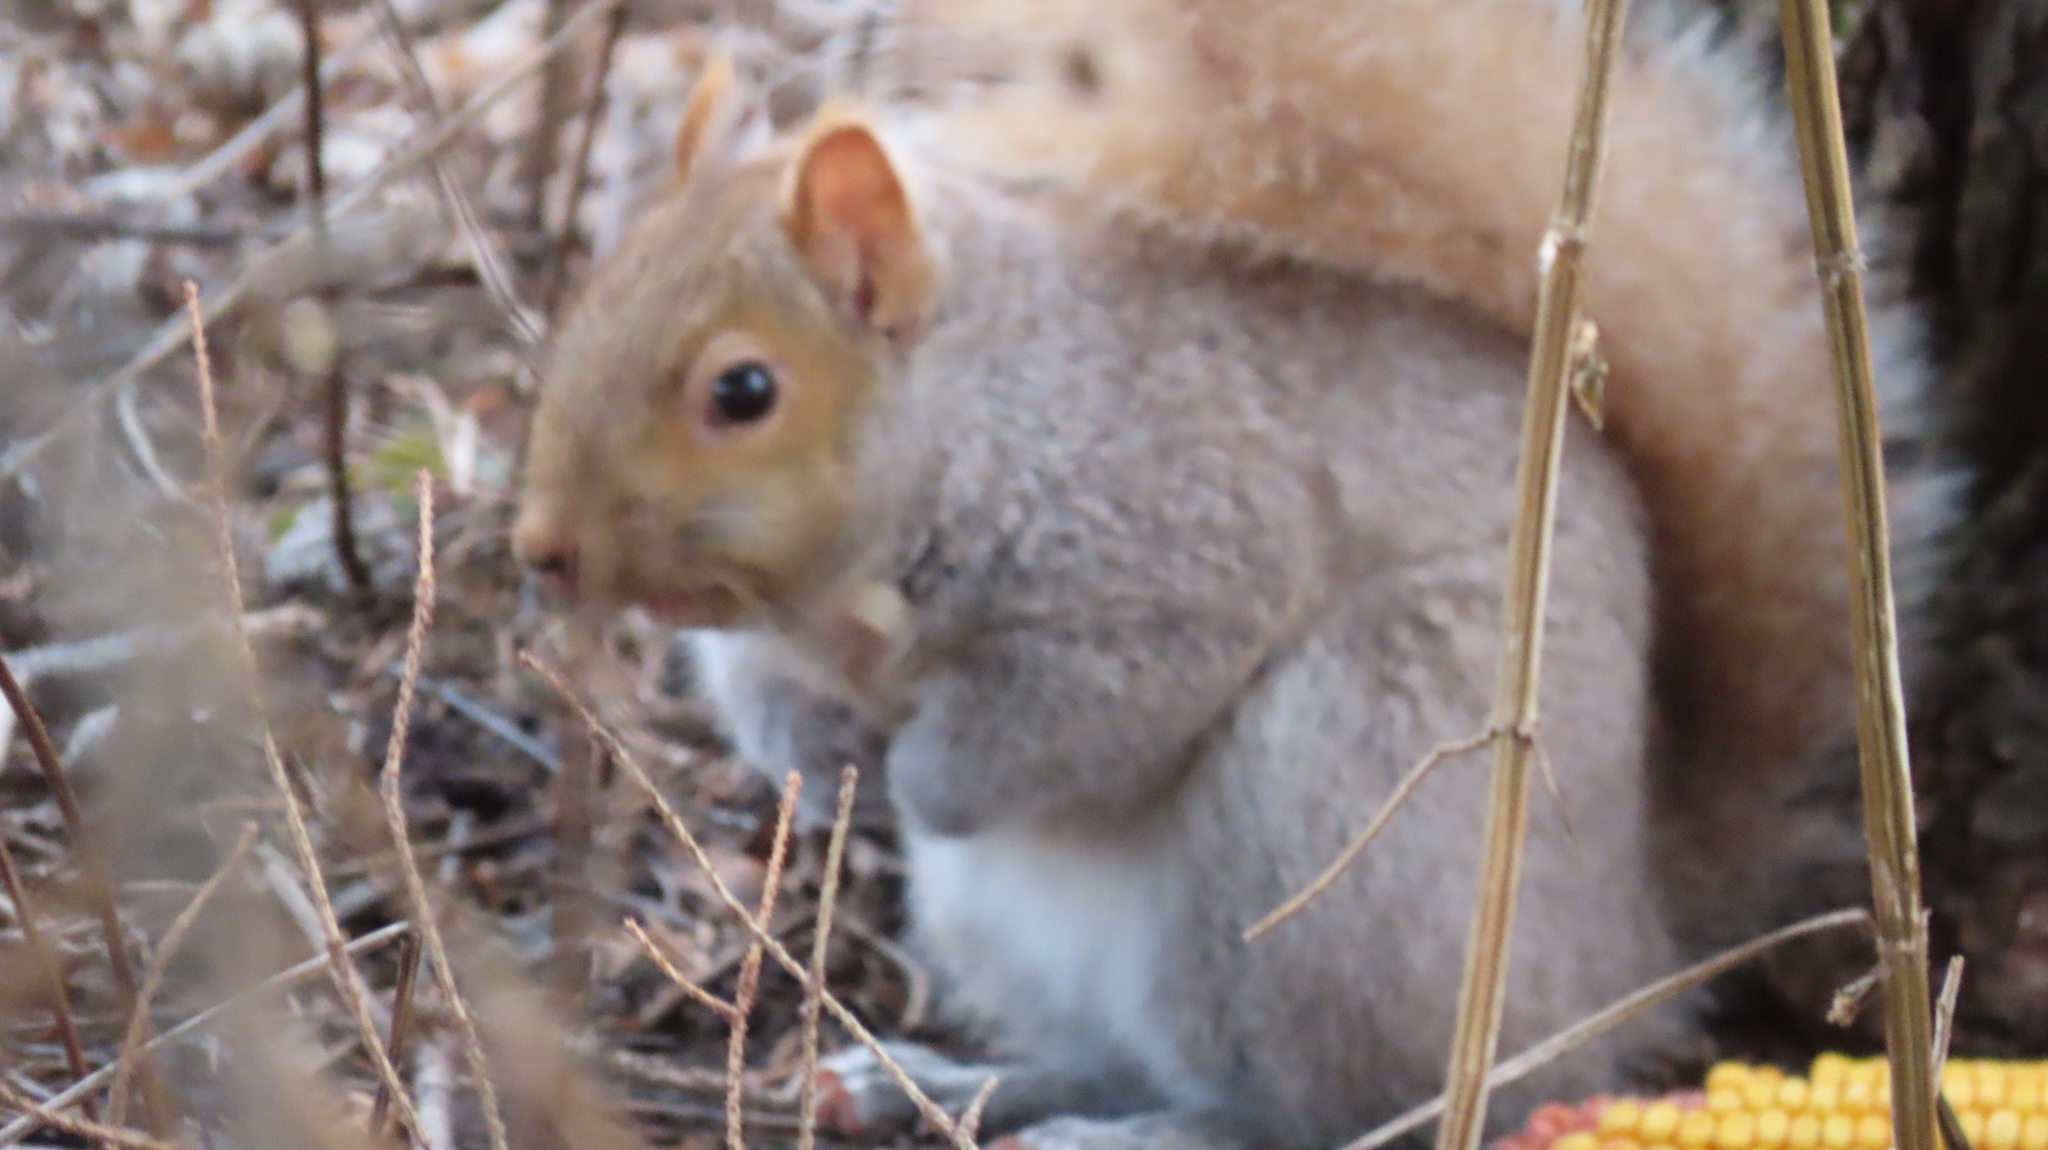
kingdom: Animalia
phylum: Chordata
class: Mammalia
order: Rodentia
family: Sciuridae
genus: Sciurus
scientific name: Sciurus carolinensis
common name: Eastern gray squirrel
